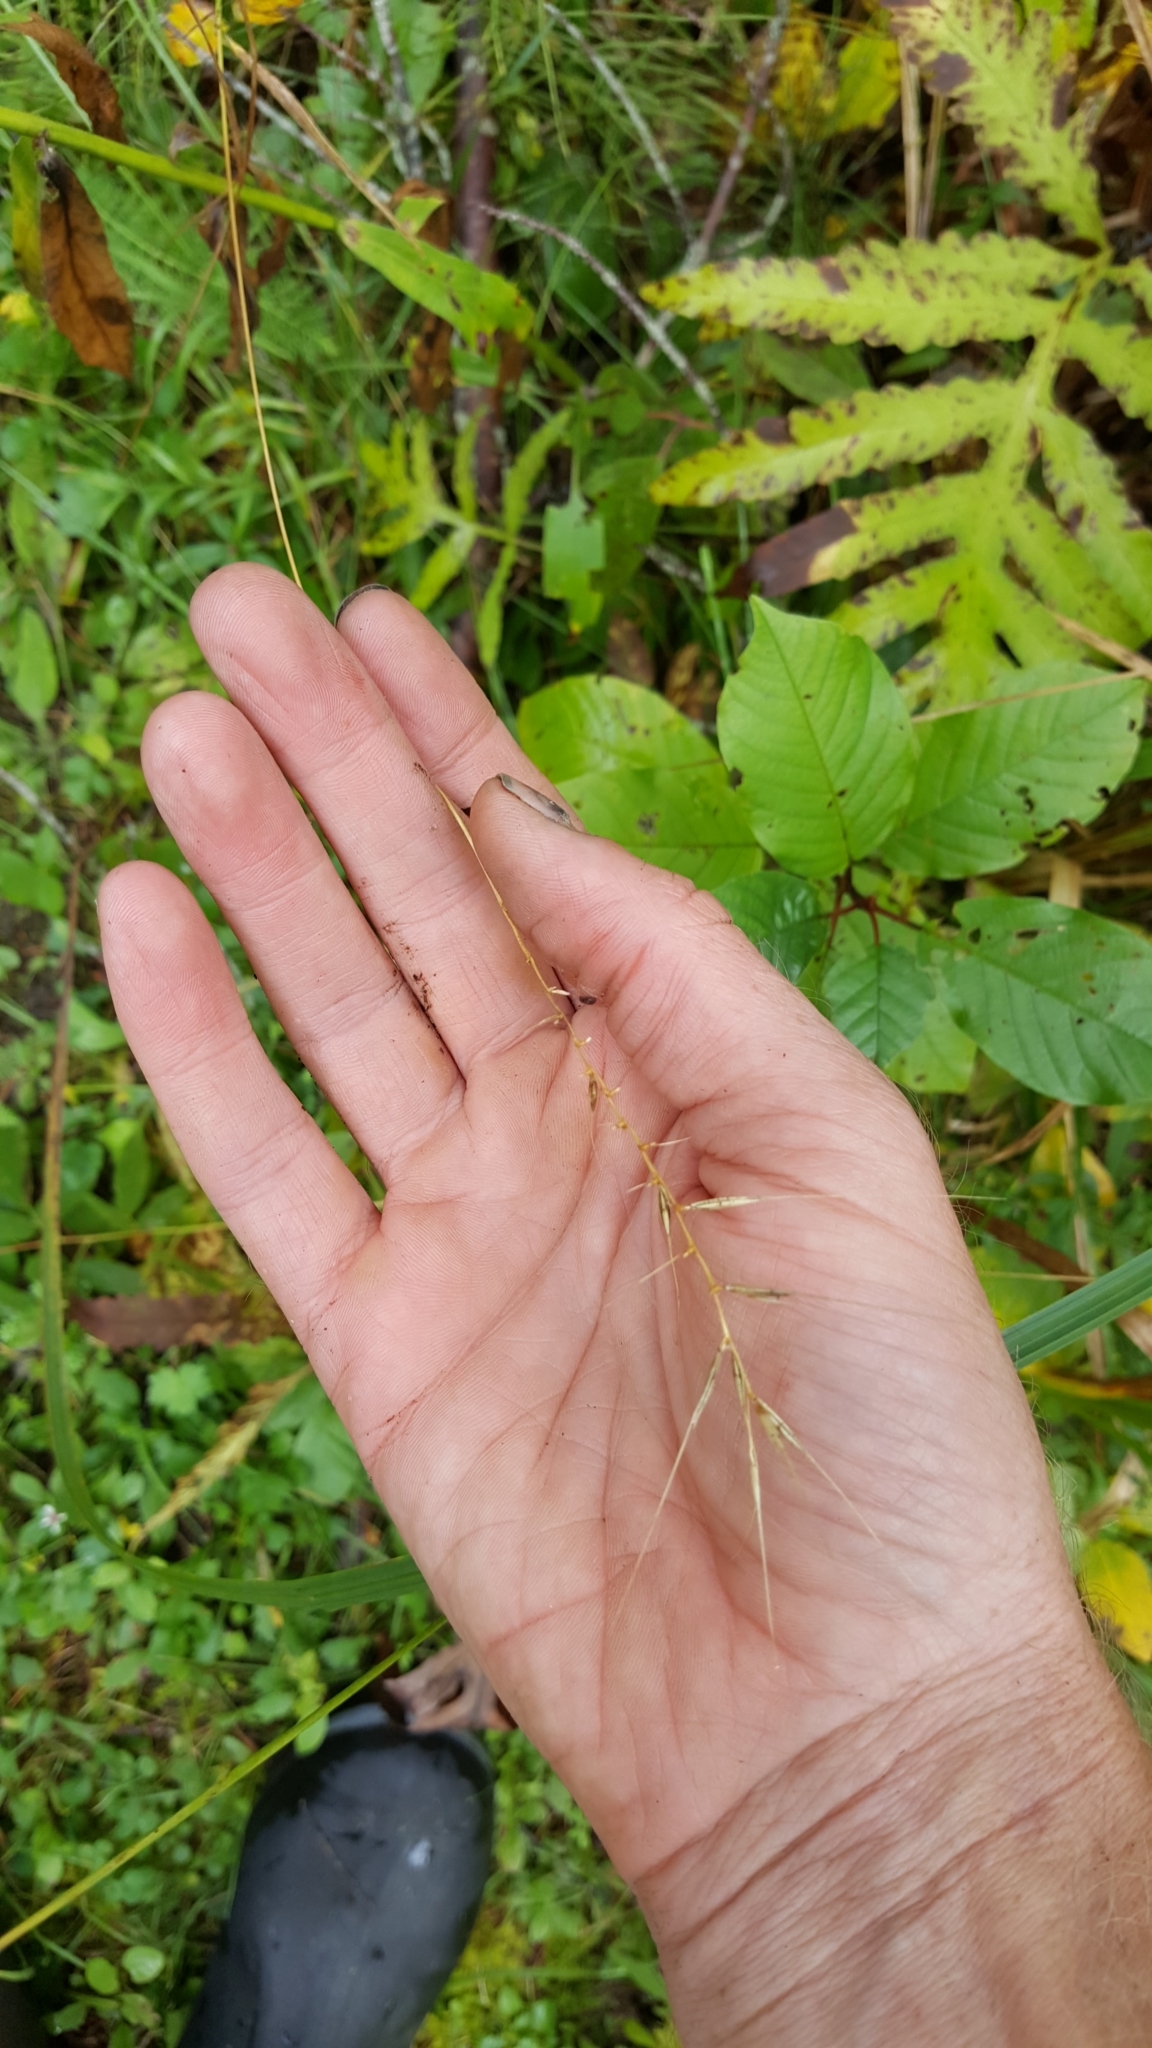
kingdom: Plantae
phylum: Tracheophyta
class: Liliopsida
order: Poales
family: Poaceae
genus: Elymus
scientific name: Elymus hystrix
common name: Bottlebrush grass
